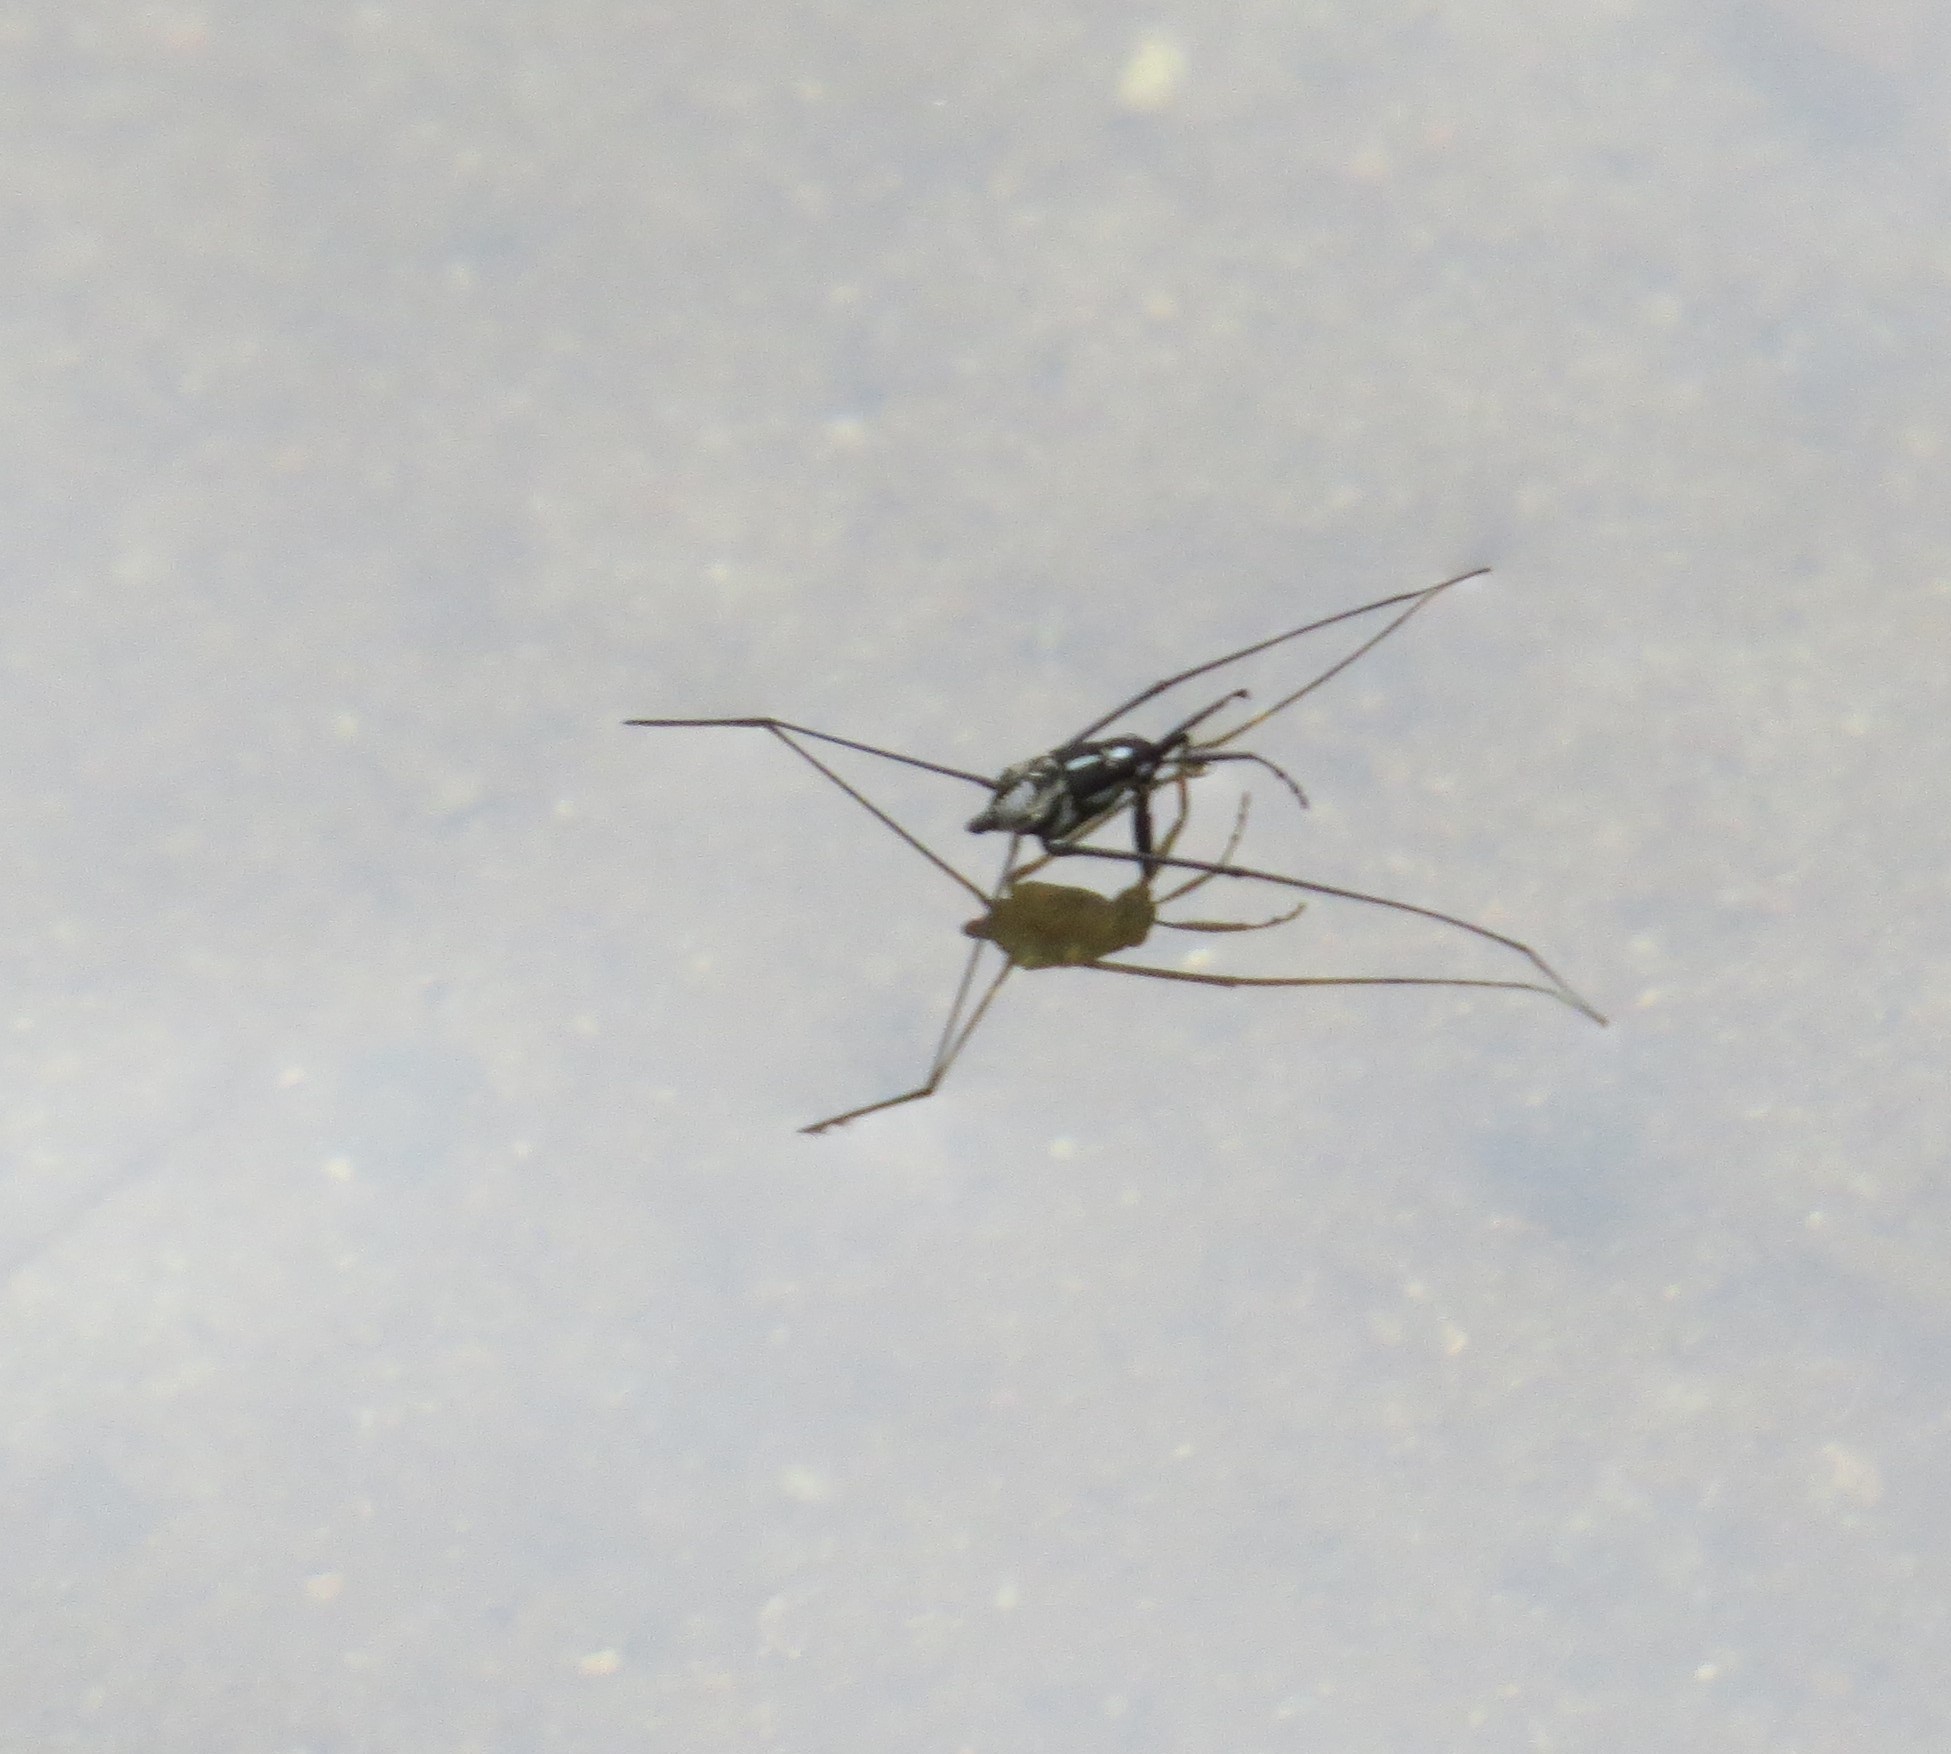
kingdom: Animalia
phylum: Arthropoda
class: Insecta
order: Hemiptera
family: Gerridae
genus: Metrobates
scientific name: Metrobates hesperius
